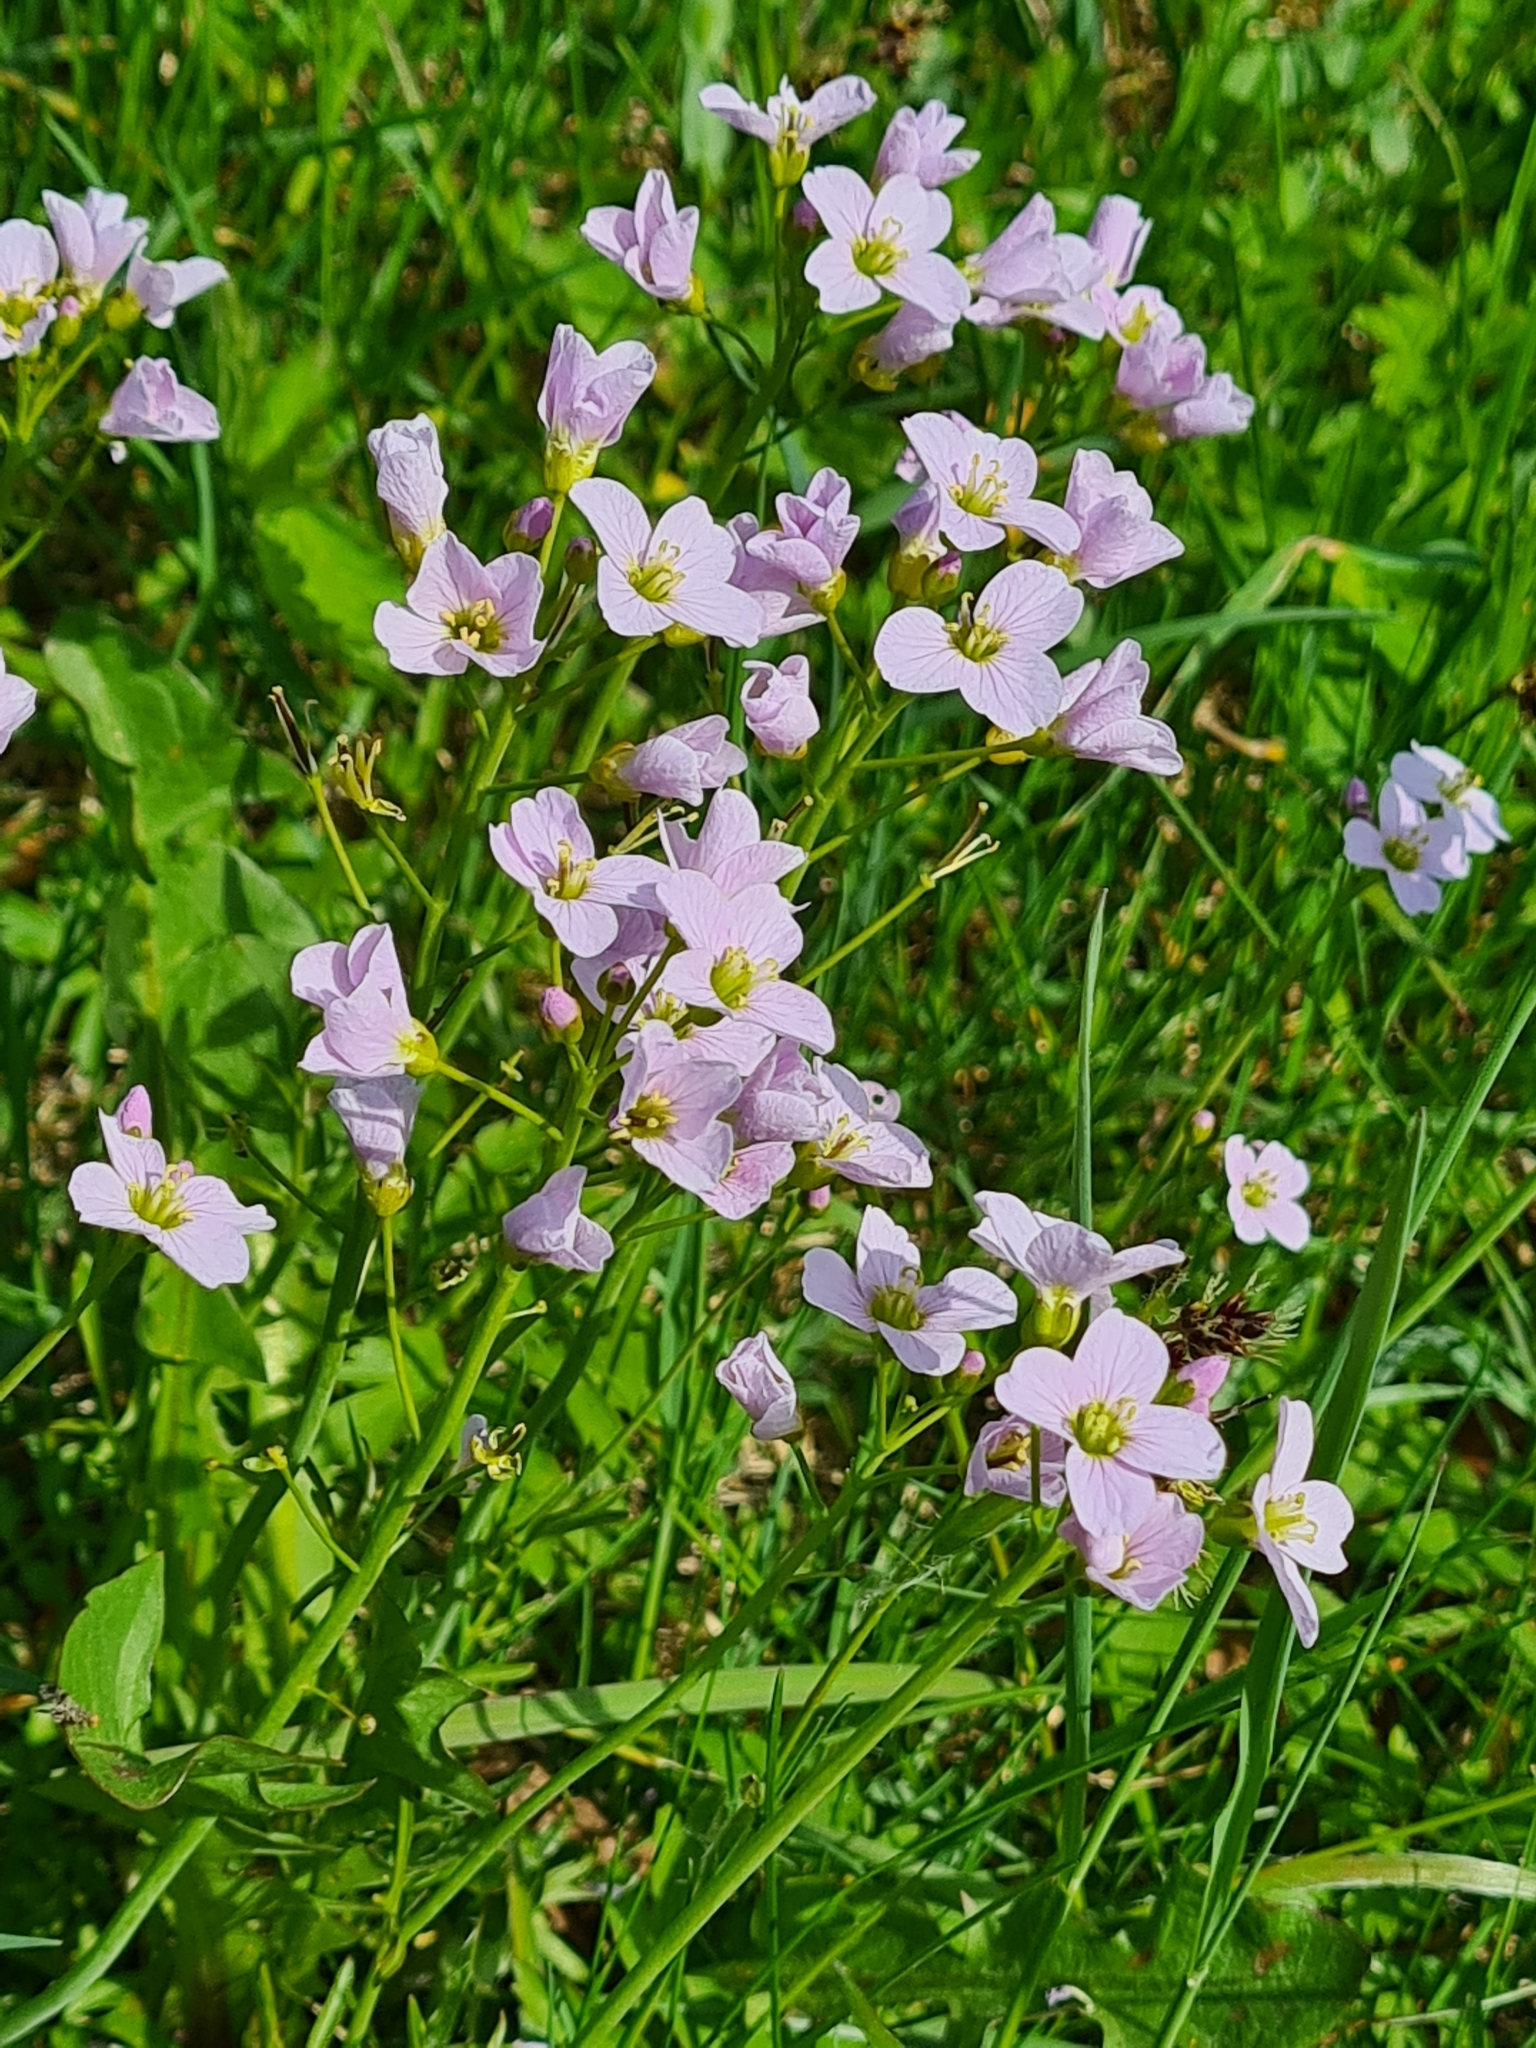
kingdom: Plantae
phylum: Tracheophyta
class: Magnoliopsida
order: Brassicales
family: Brassicaceae
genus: Cardamine
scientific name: Cardamine pratensis
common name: Cuckoo flower
